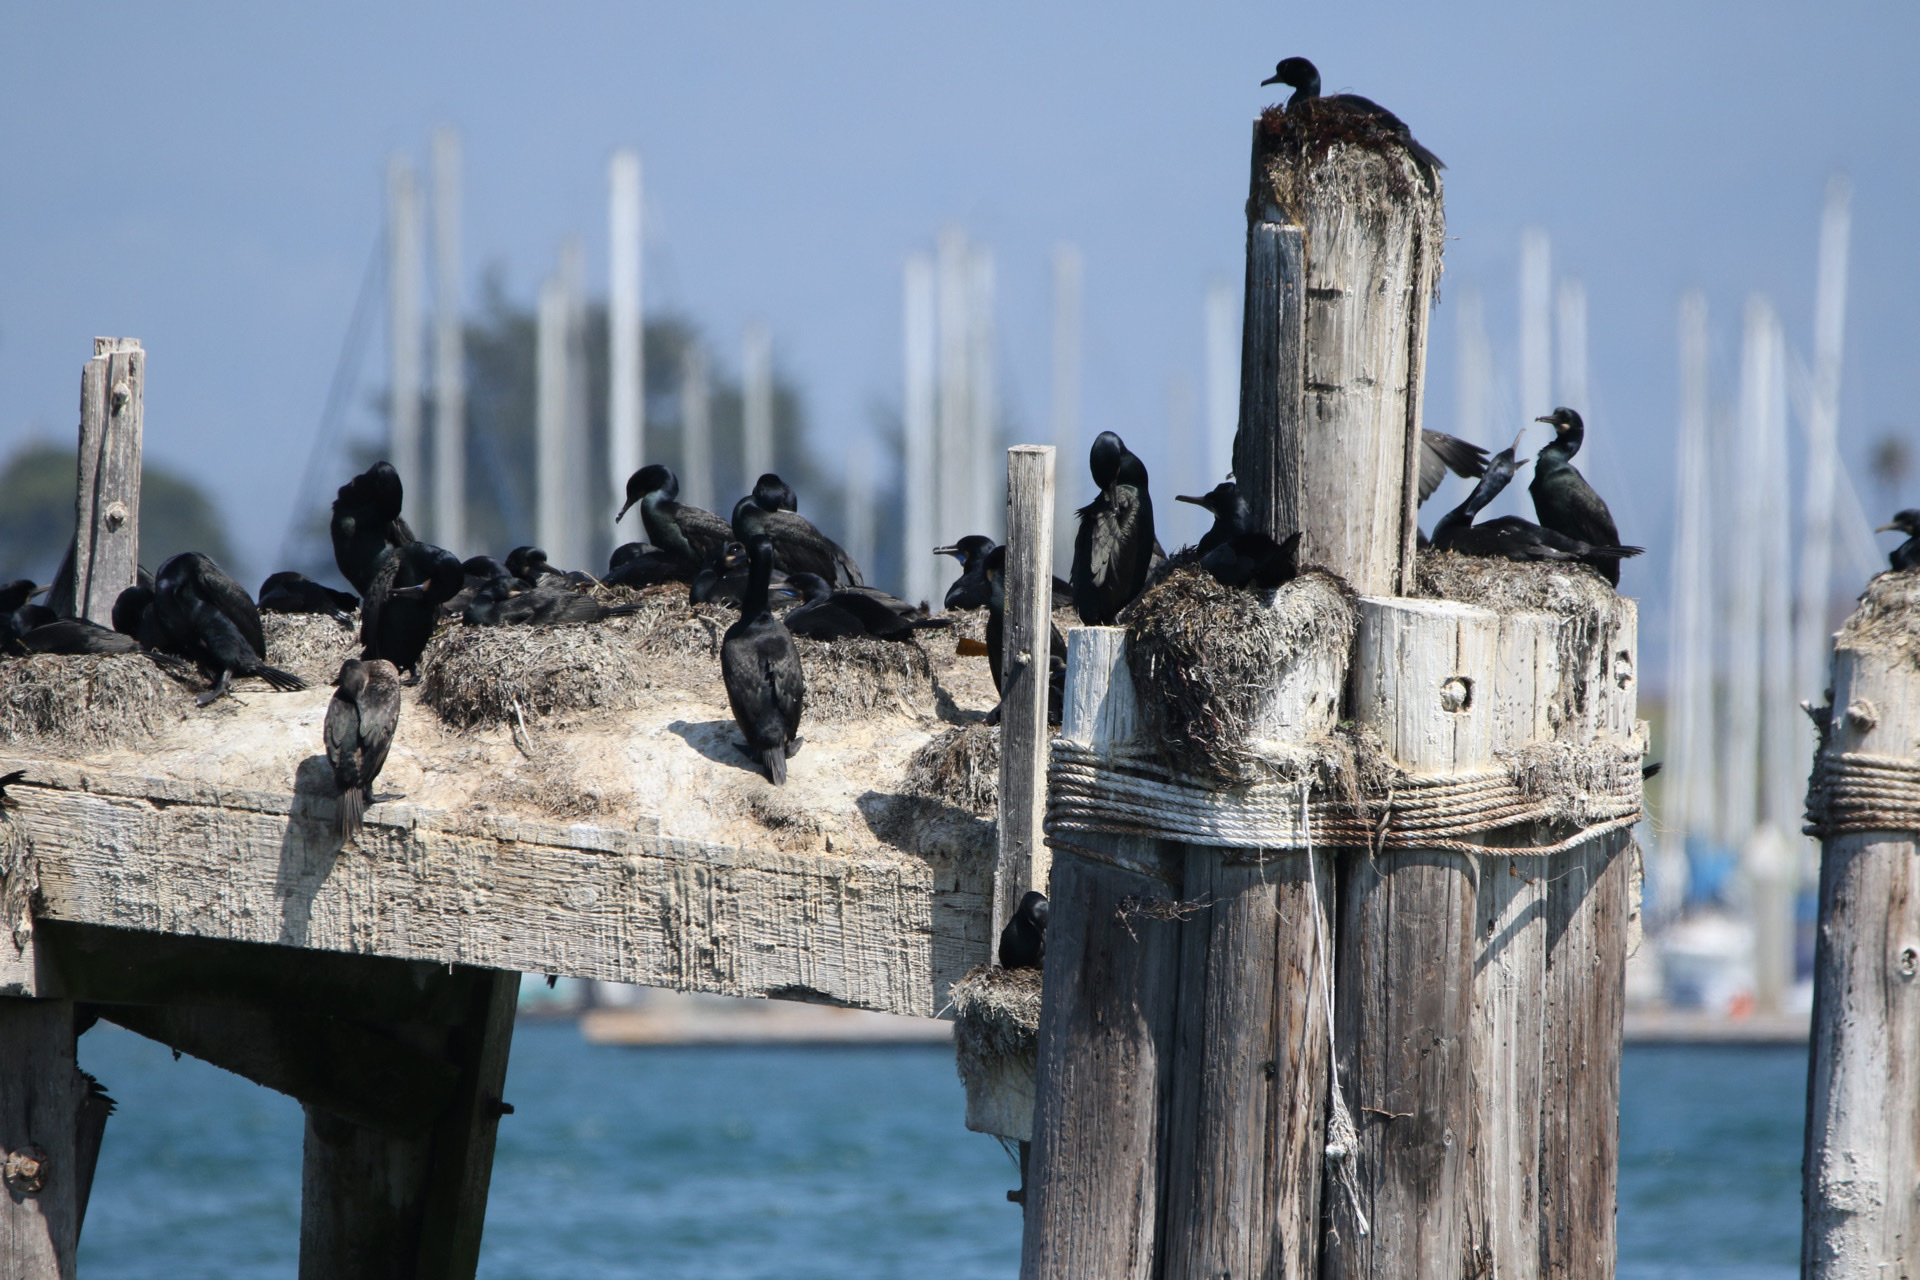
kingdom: Animalia
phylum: Chordata
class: Aves
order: Suliformes
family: Phalacrocoracidae
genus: Urile
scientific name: Urile penicillatus
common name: Brandt's cormorant
